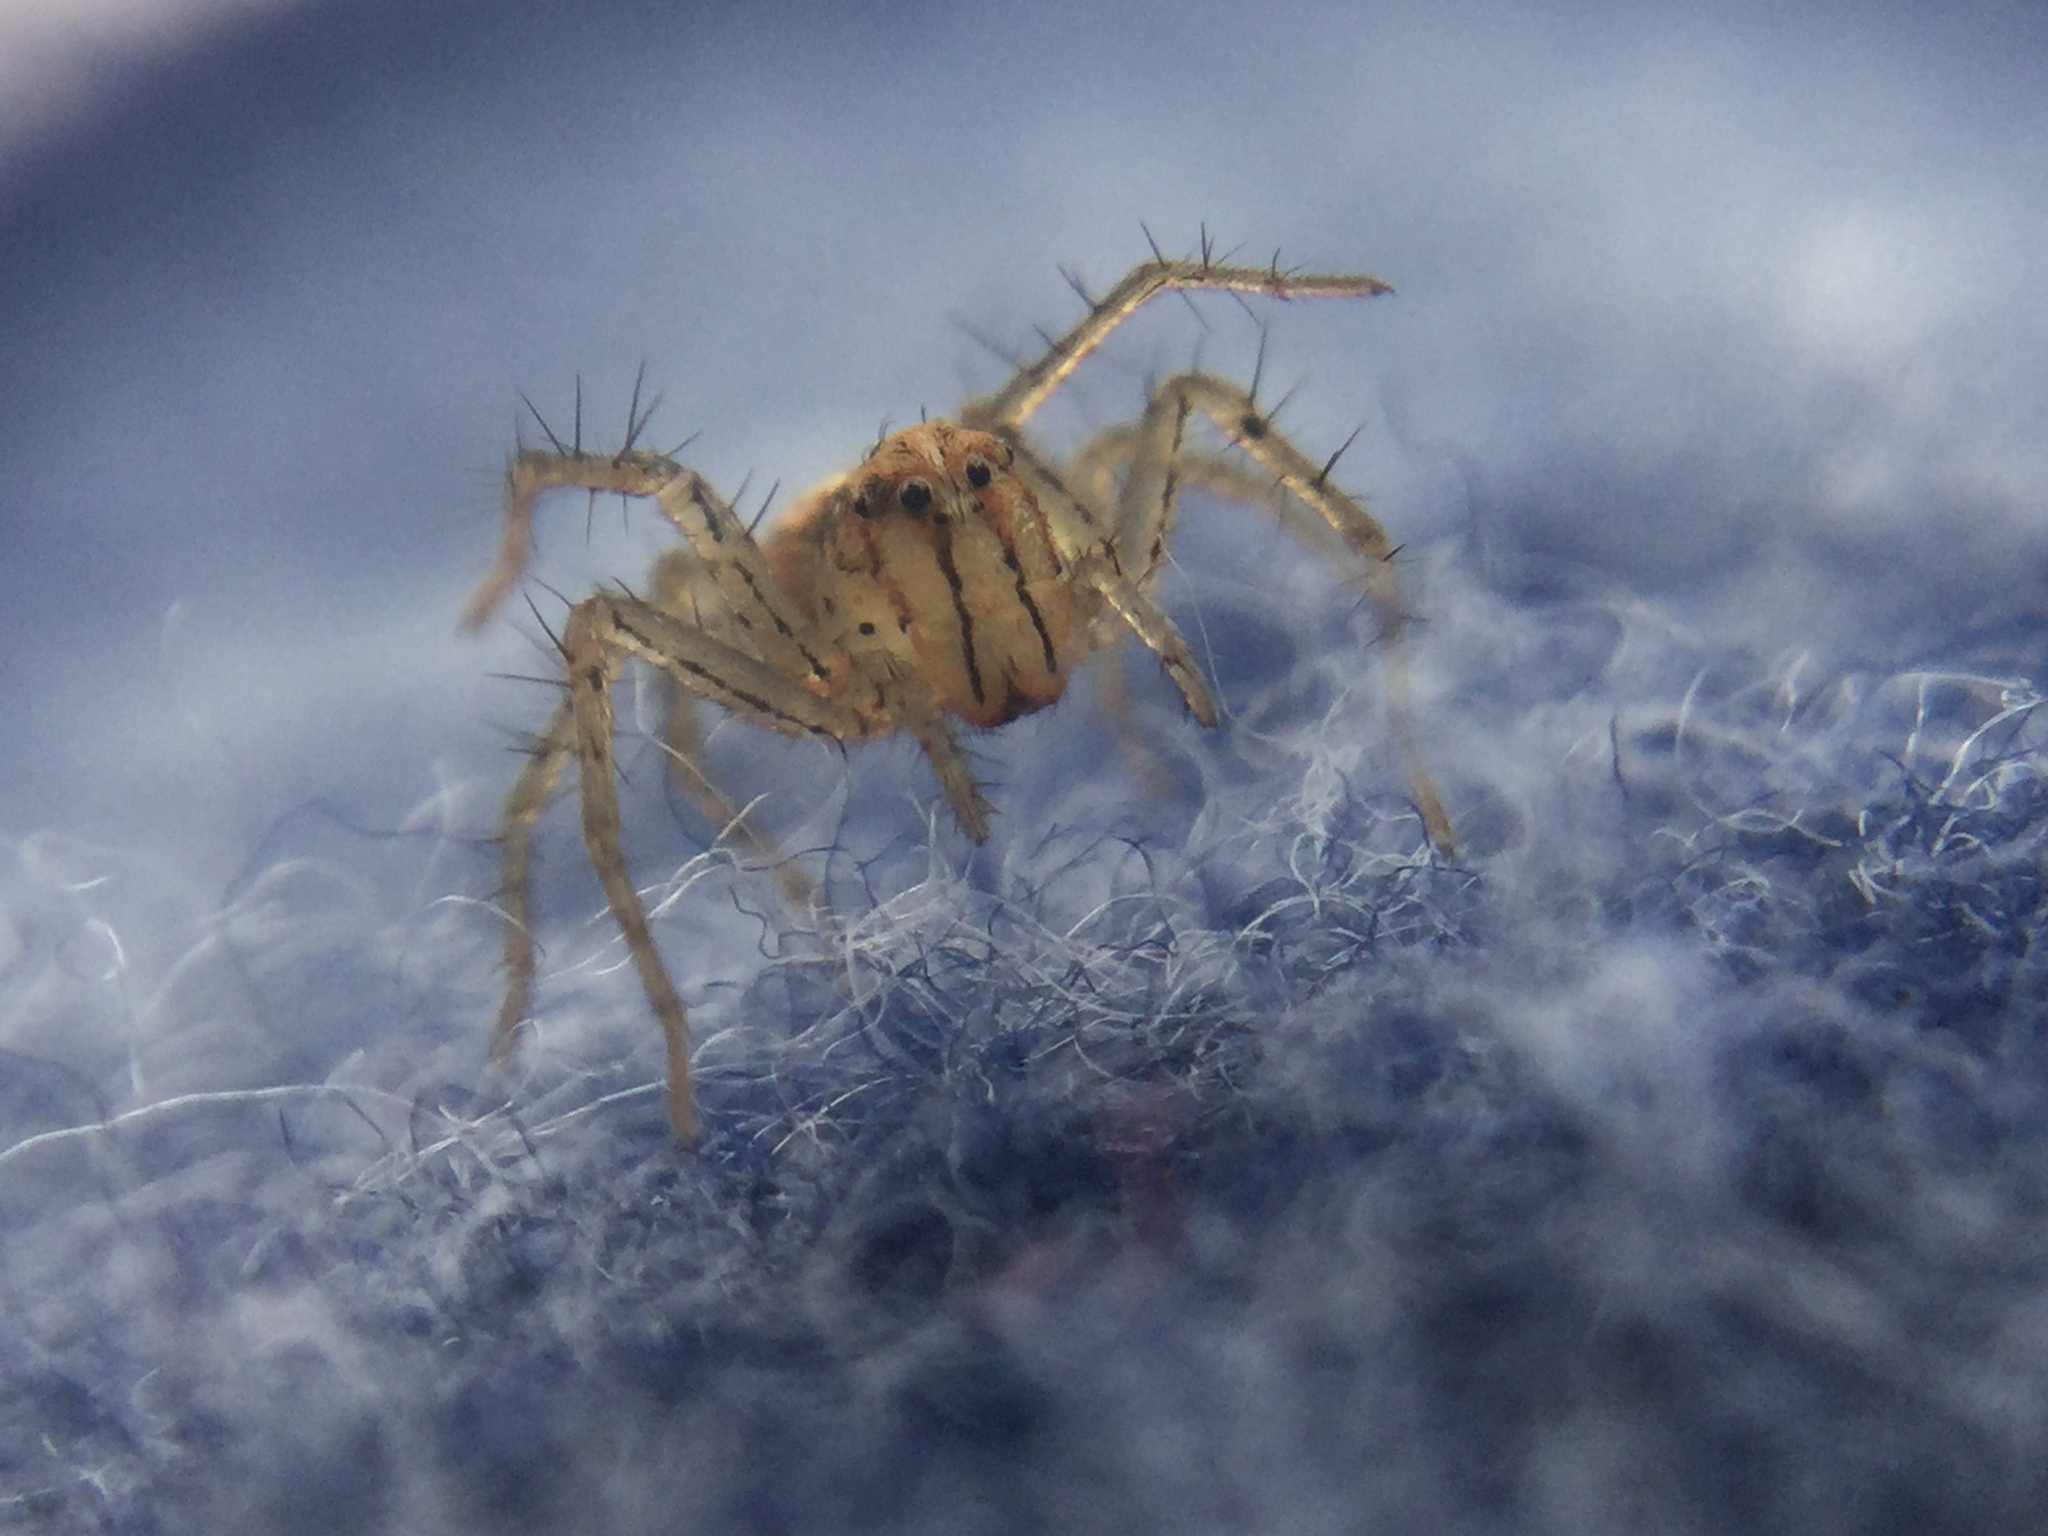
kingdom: Animalia
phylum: Arthropoda
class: Arachnida
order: Araneae
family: Oxyopidae
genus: Oxyopes
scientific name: Oxyopes aglossus
